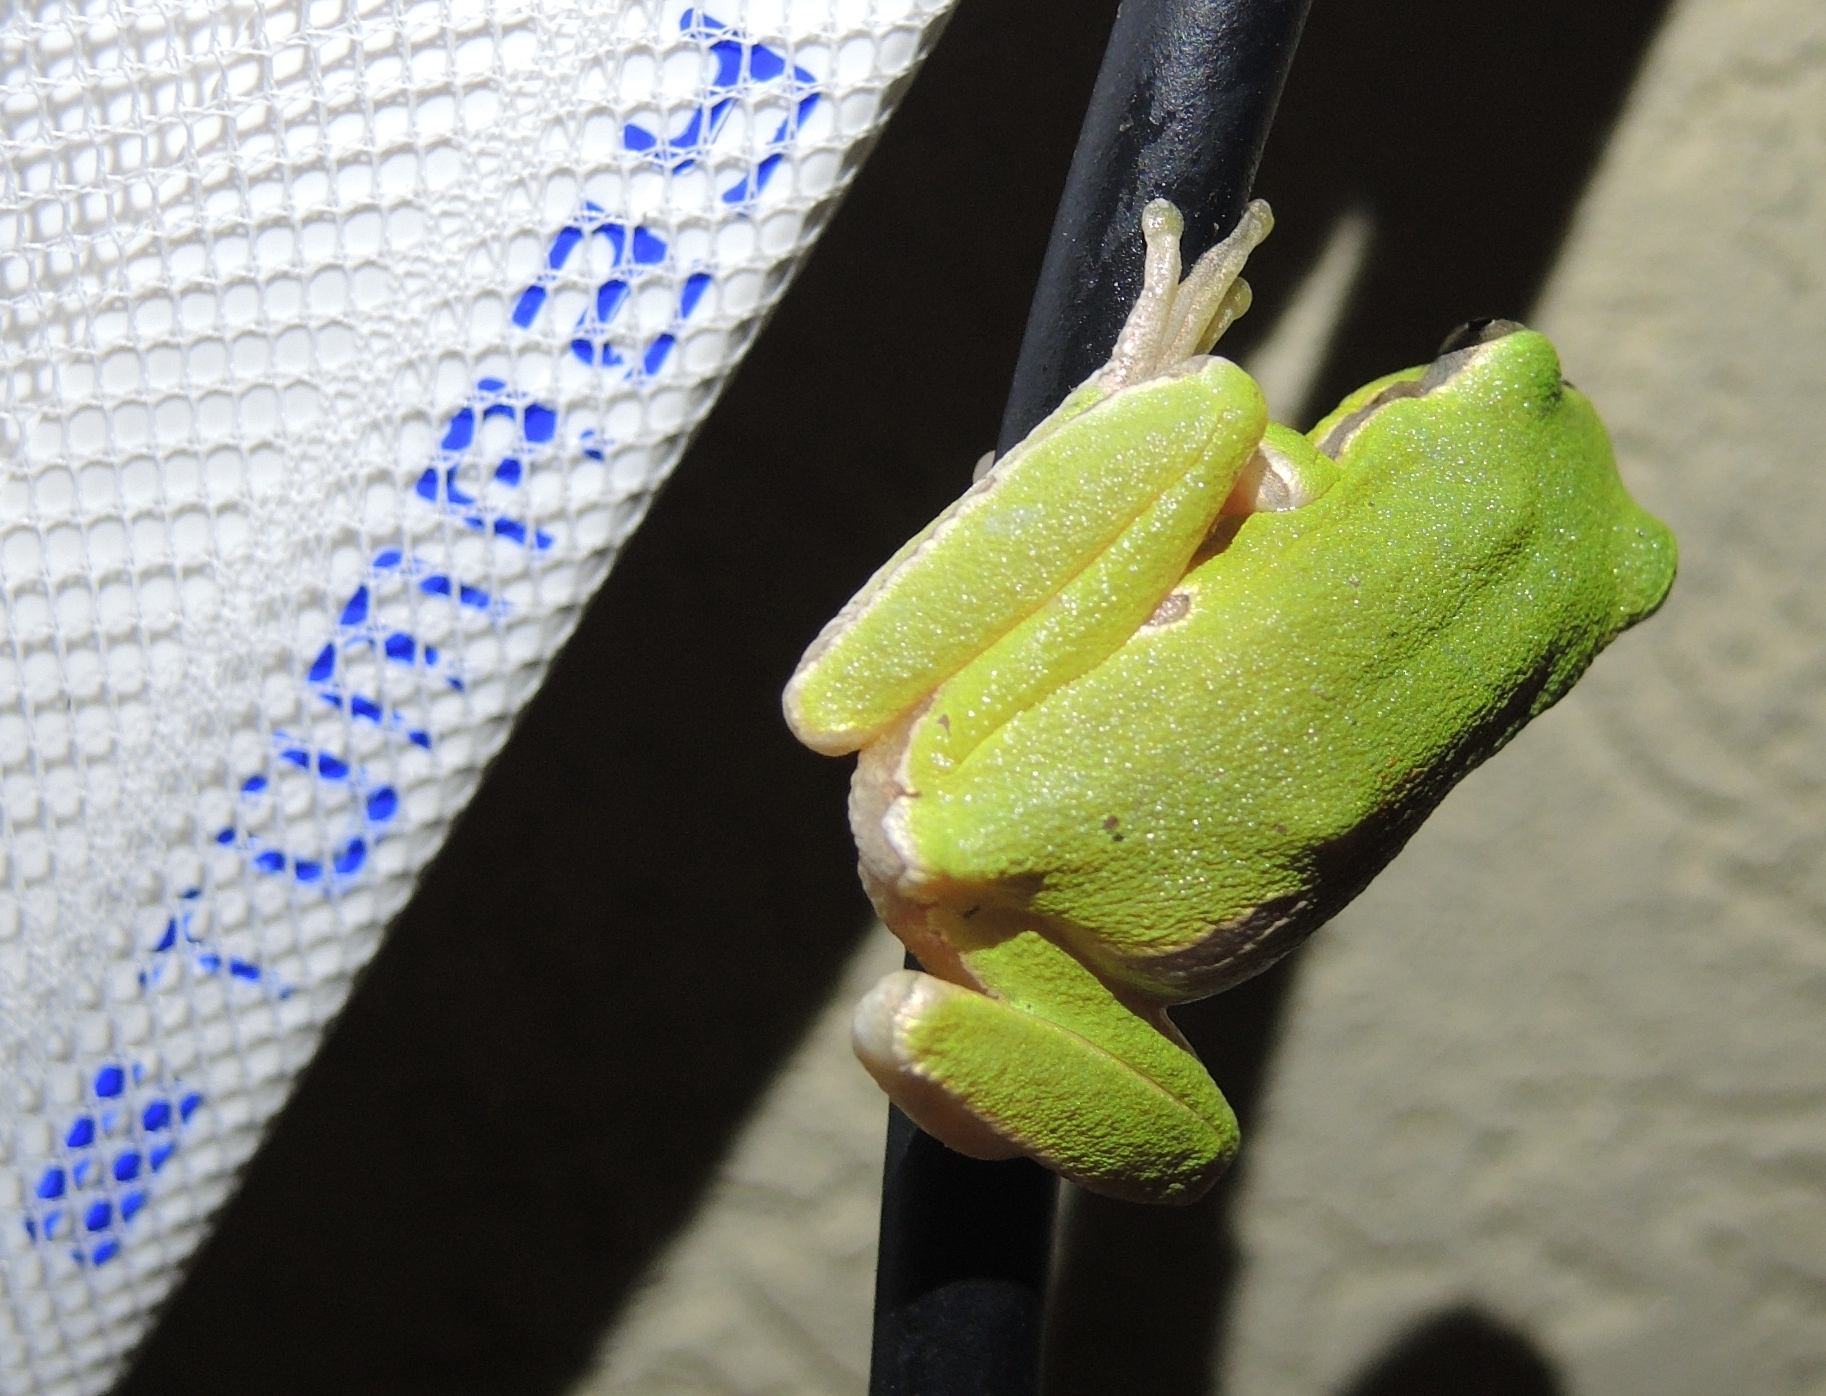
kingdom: Animalia
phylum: Chordata
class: Amphibia
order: Anura
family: Hylidae
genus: Hyla
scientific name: Hyla orientalis
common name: Caucasian treefrog
